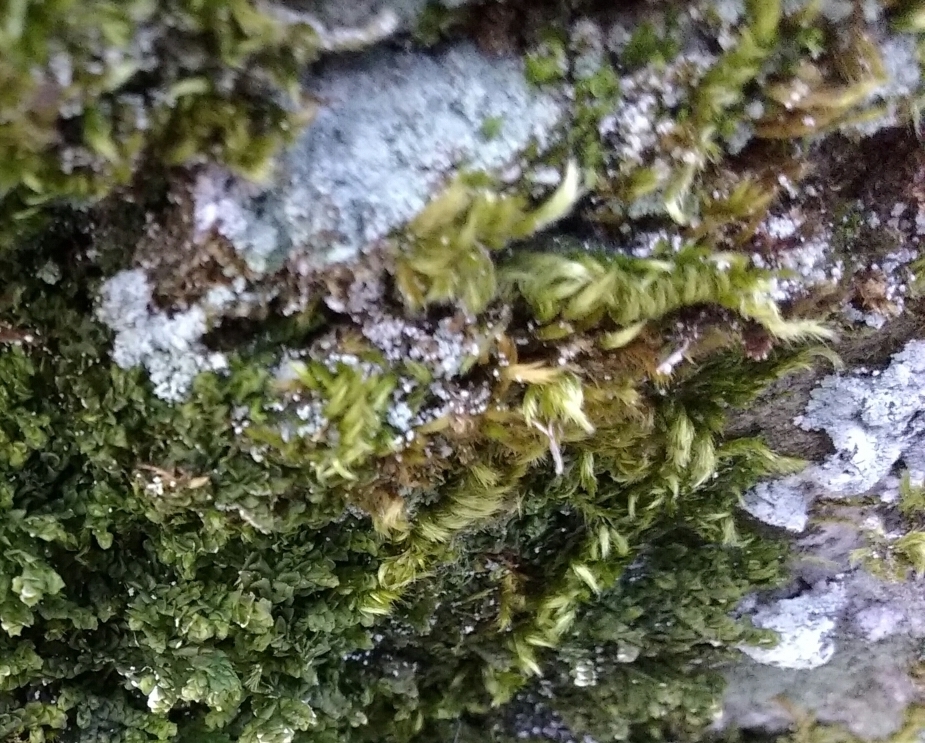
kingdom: Plantae
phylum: Bryophyta
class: Bryopsida
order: Hypnales
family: Brachytheciaceae
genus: Homalothecium
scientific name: Homalothecium sericeum
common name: Silky wall feather-moss
